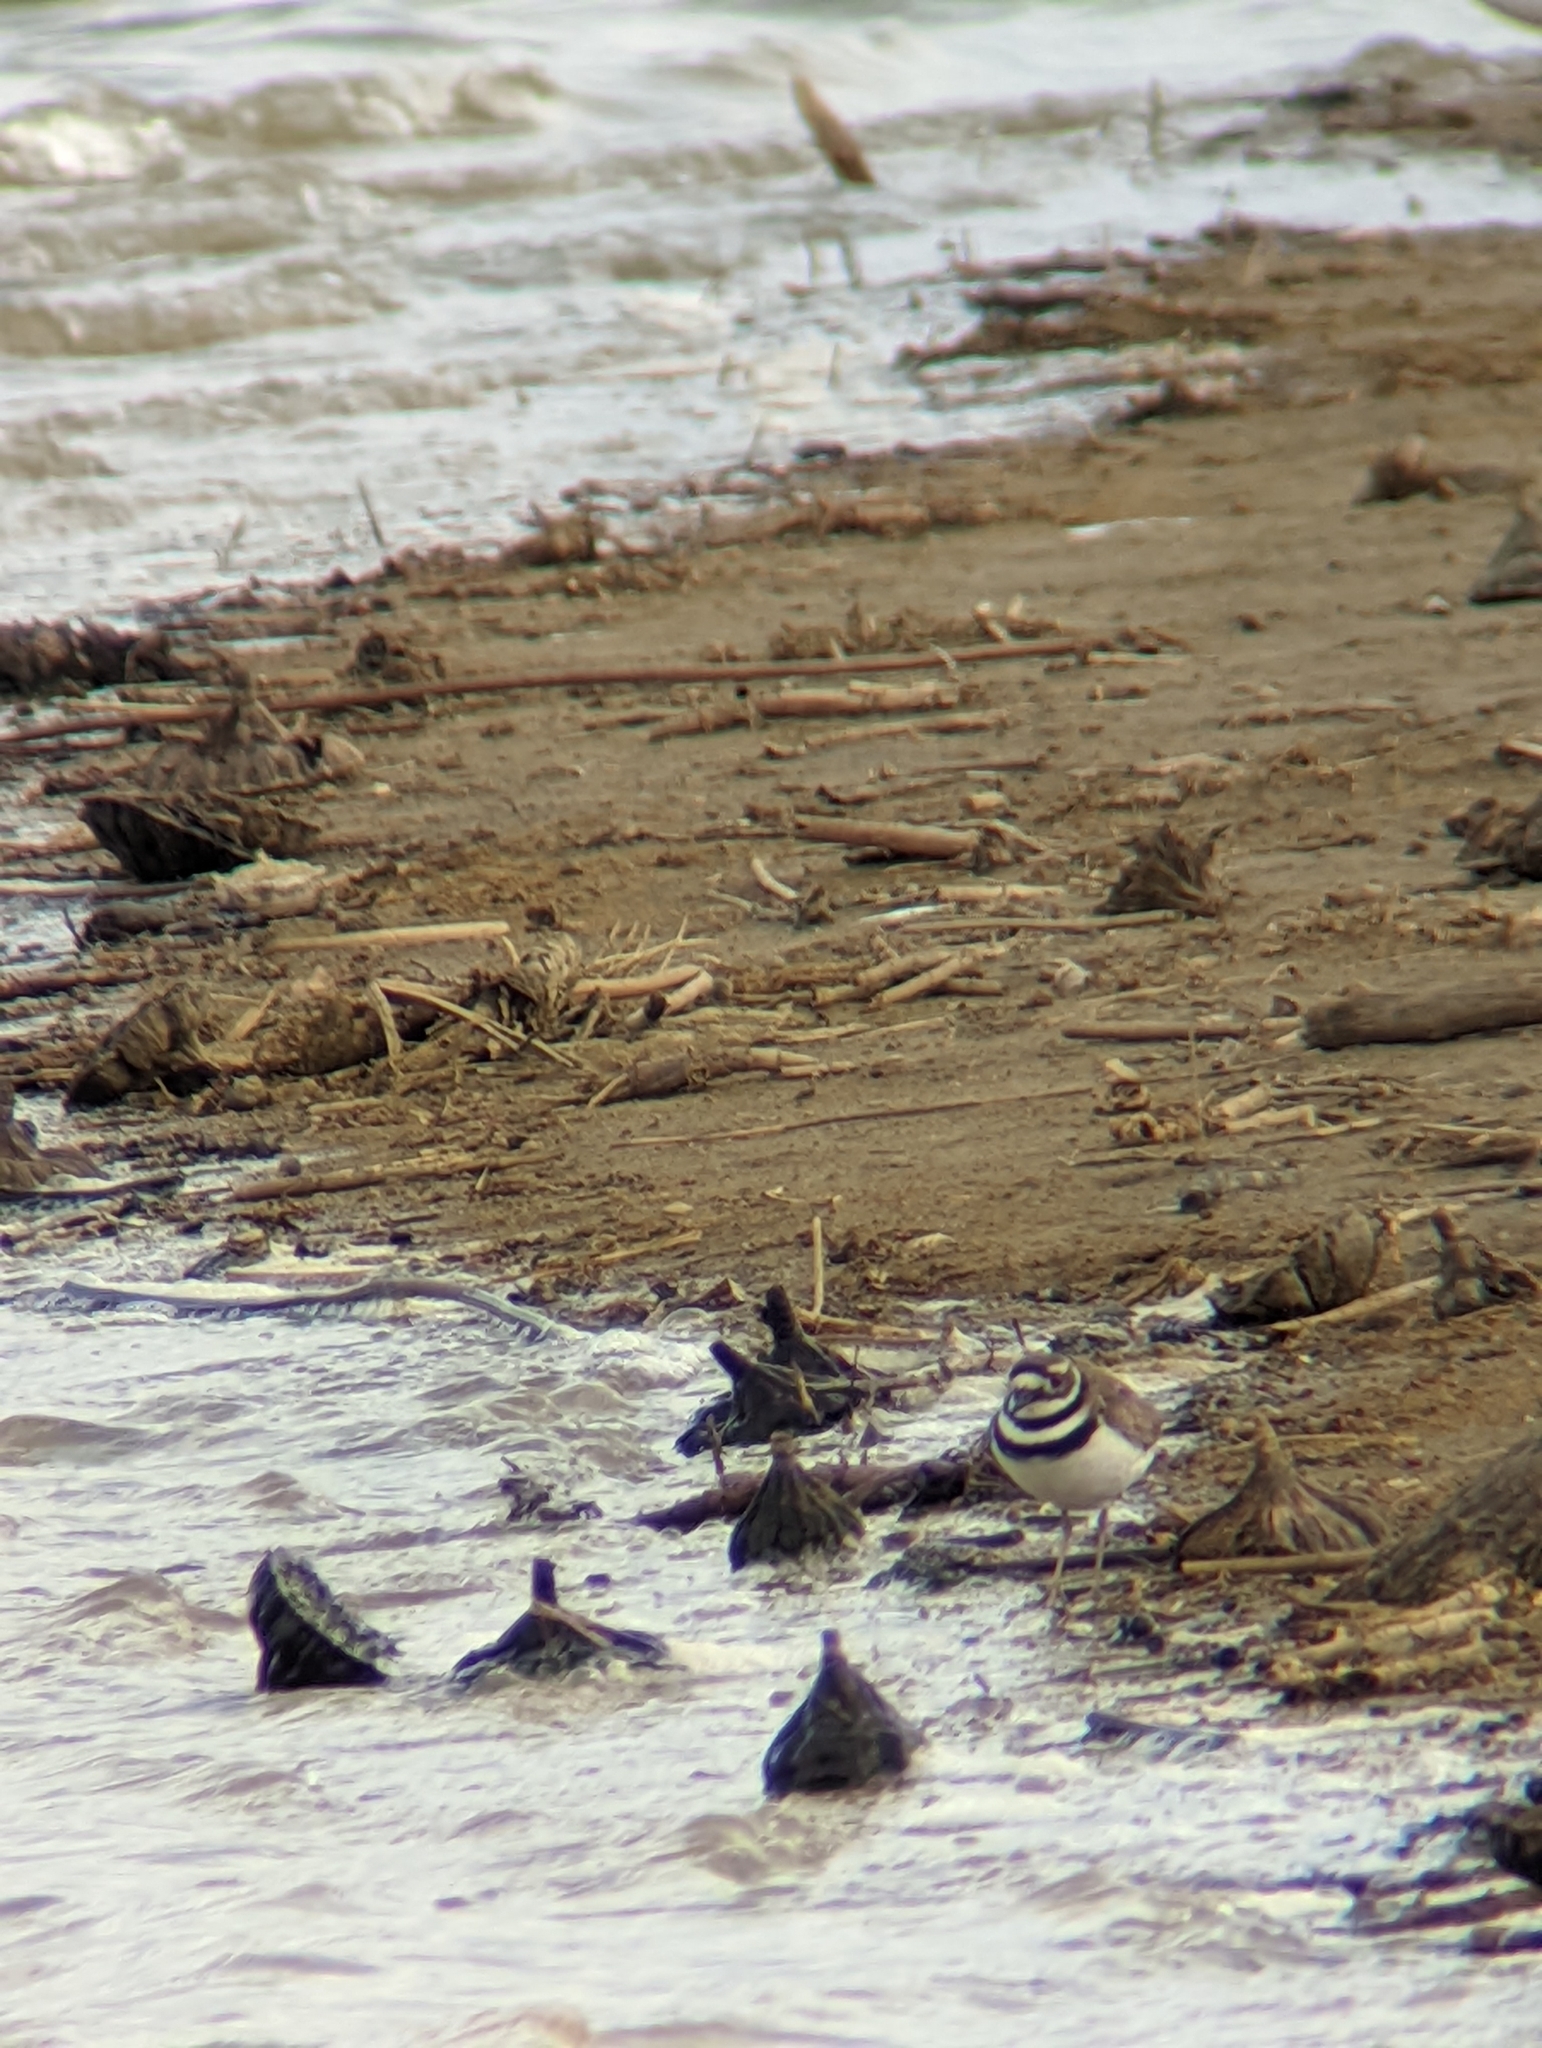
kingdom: Animalia
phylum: Chordata
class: Aves
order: Charadriiformes
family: Charadriidae
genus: Charadrius
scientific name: Charadrius vociferus
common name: Killdeer
